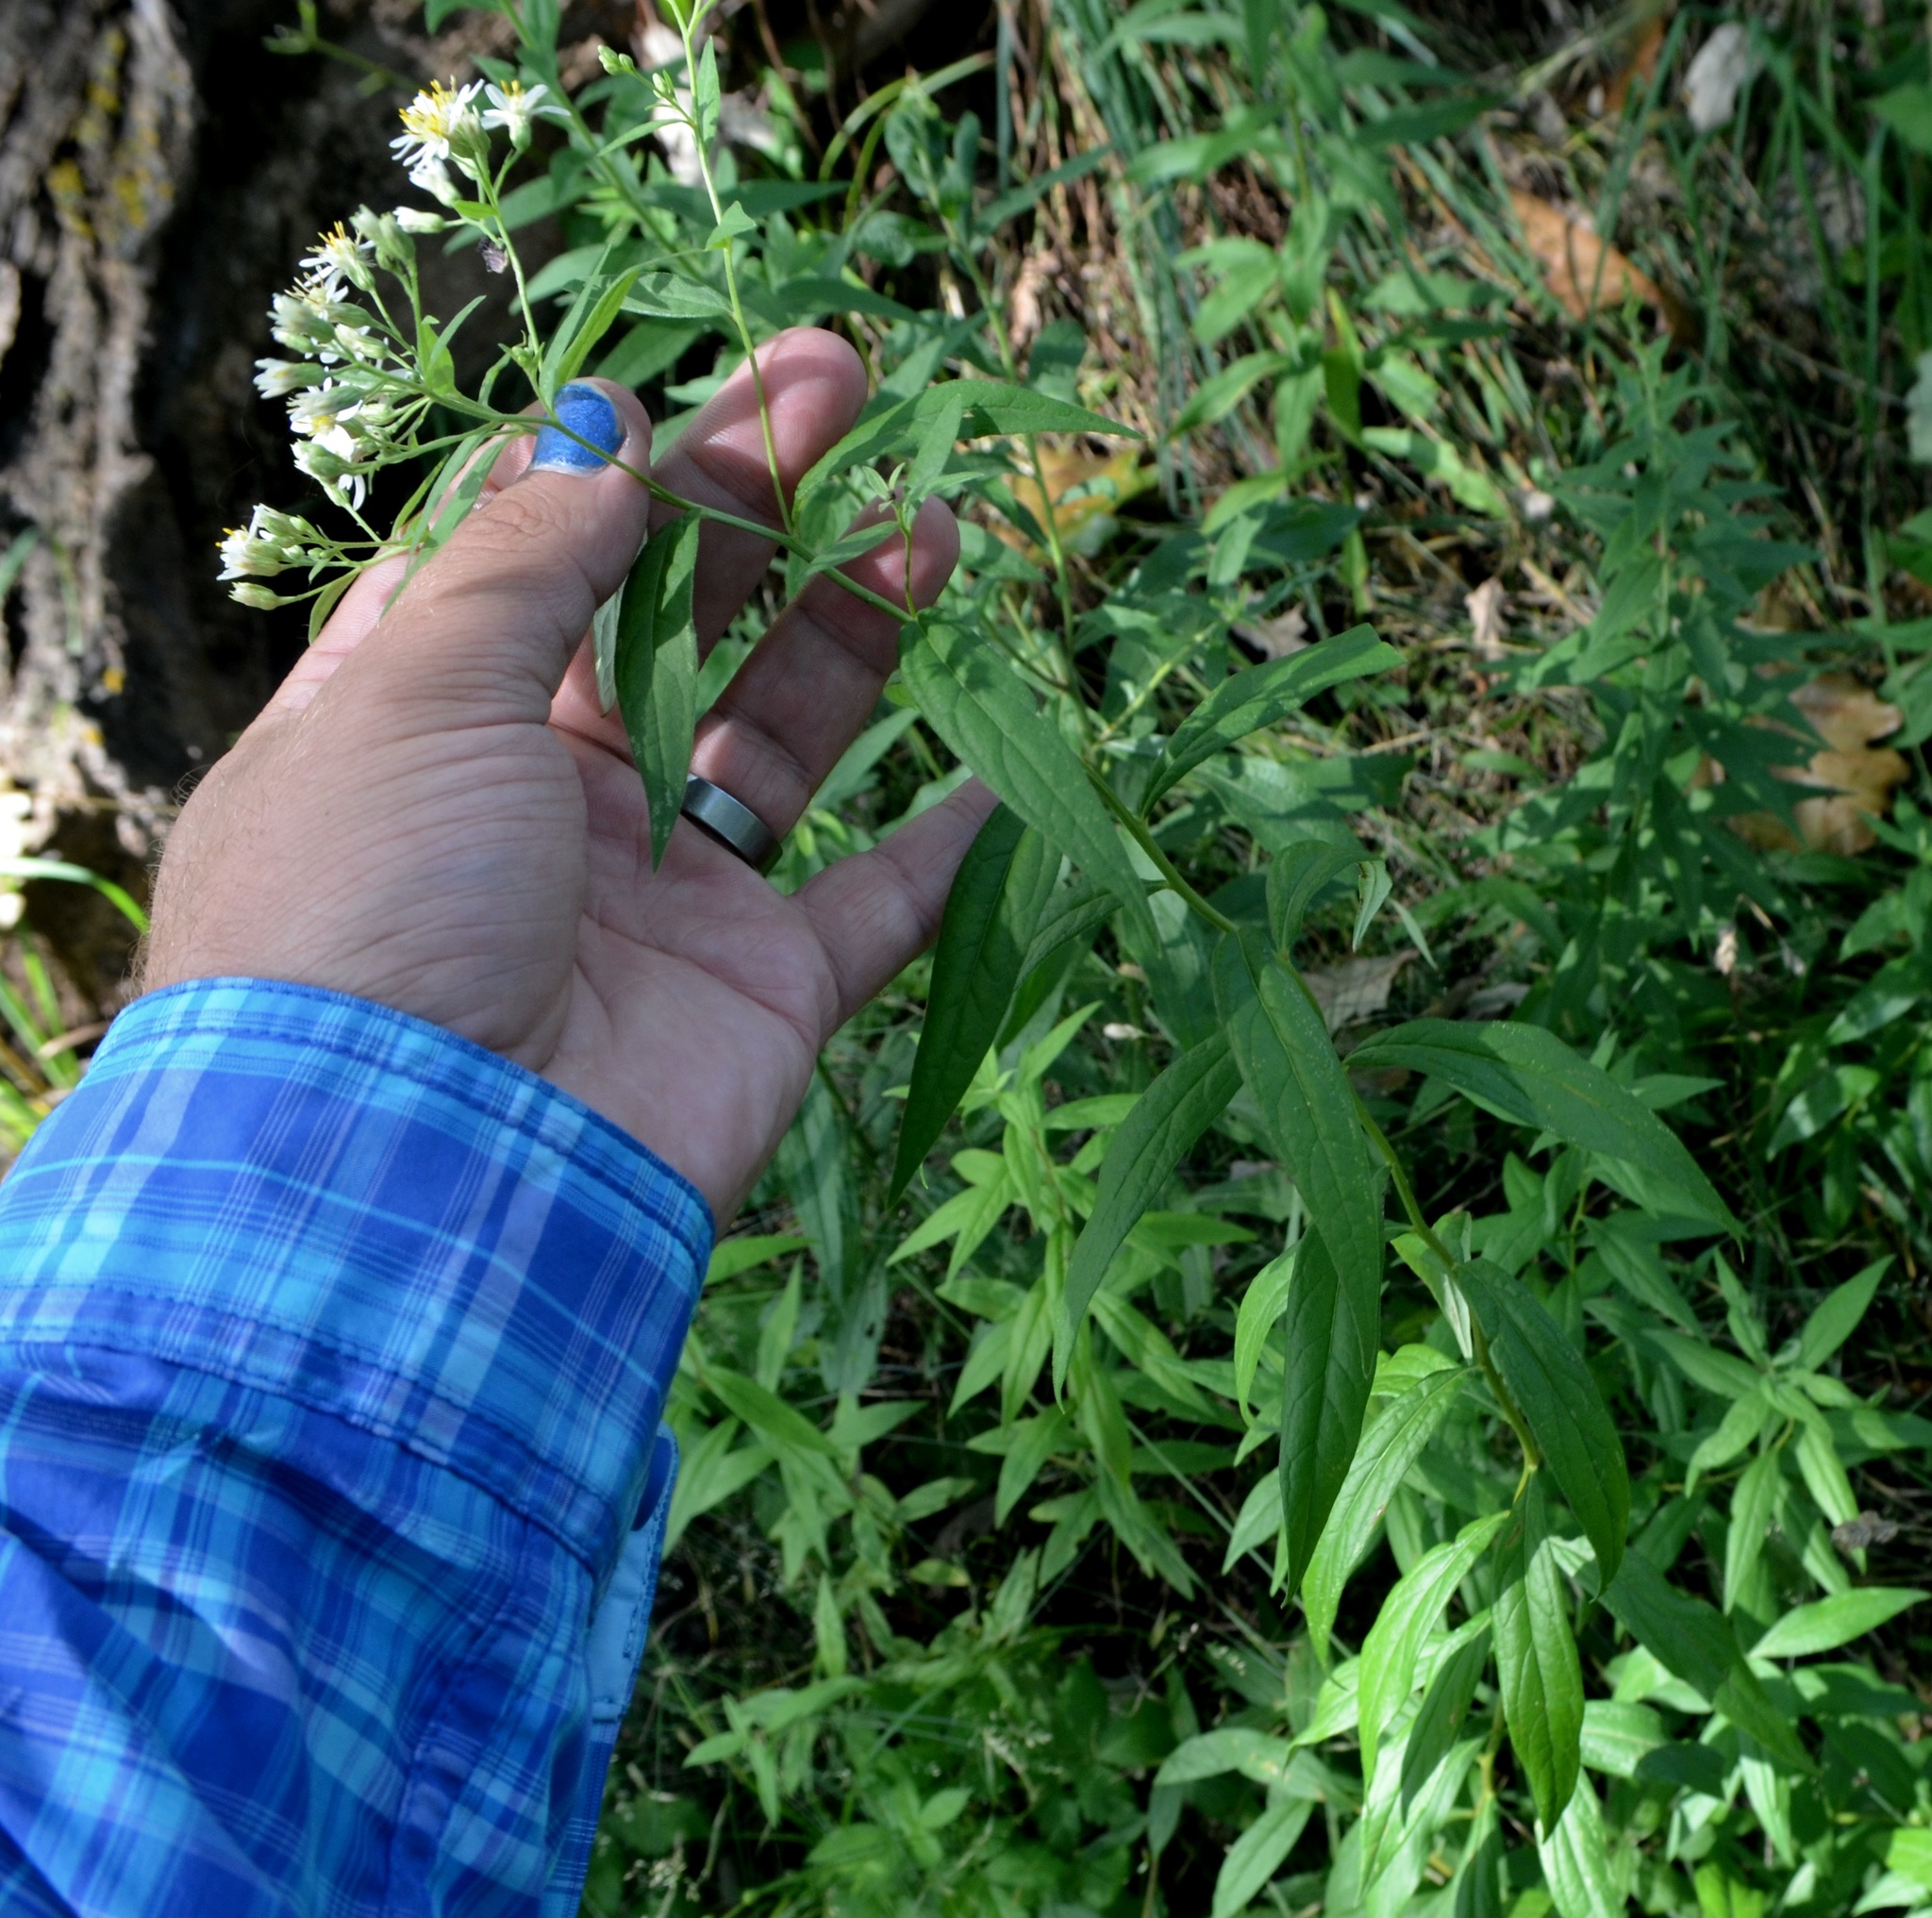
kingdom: Plantae
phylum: Tracheophyta
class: Magnoliopsida
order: Asterales
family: Asteraceae
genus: Doellingeria
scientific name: Doellingeria umbellata
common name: Flat-top white aster
